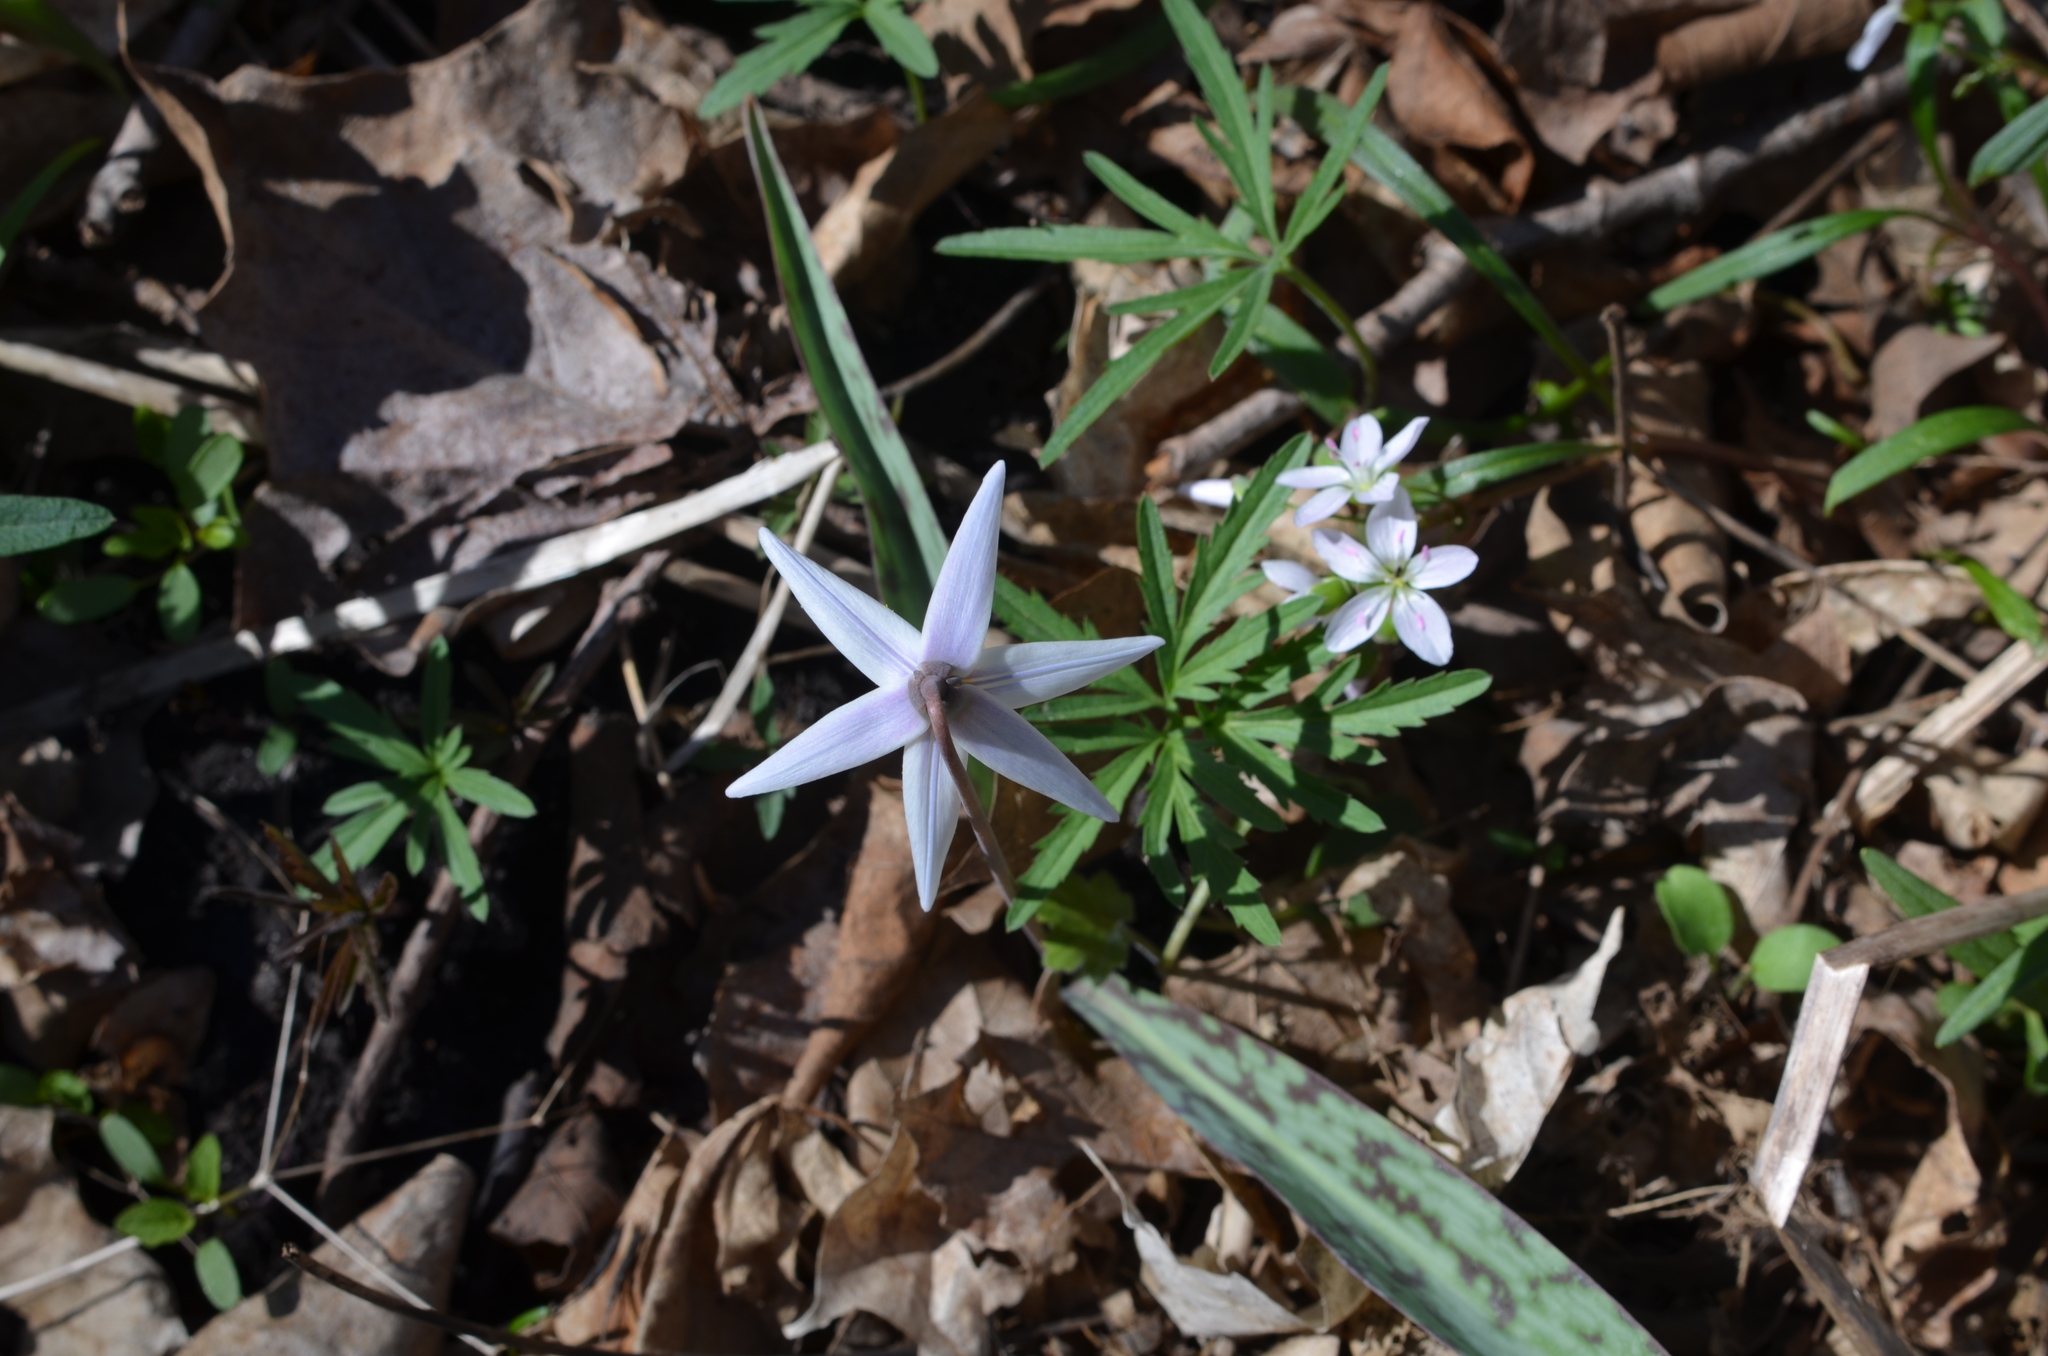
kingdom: Plantae
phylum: Tracheophyta
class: Liliopsida
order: Liliales
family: Liliaceae
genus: Erythronium
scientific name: Erythronium albidum
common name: White trout-lily
